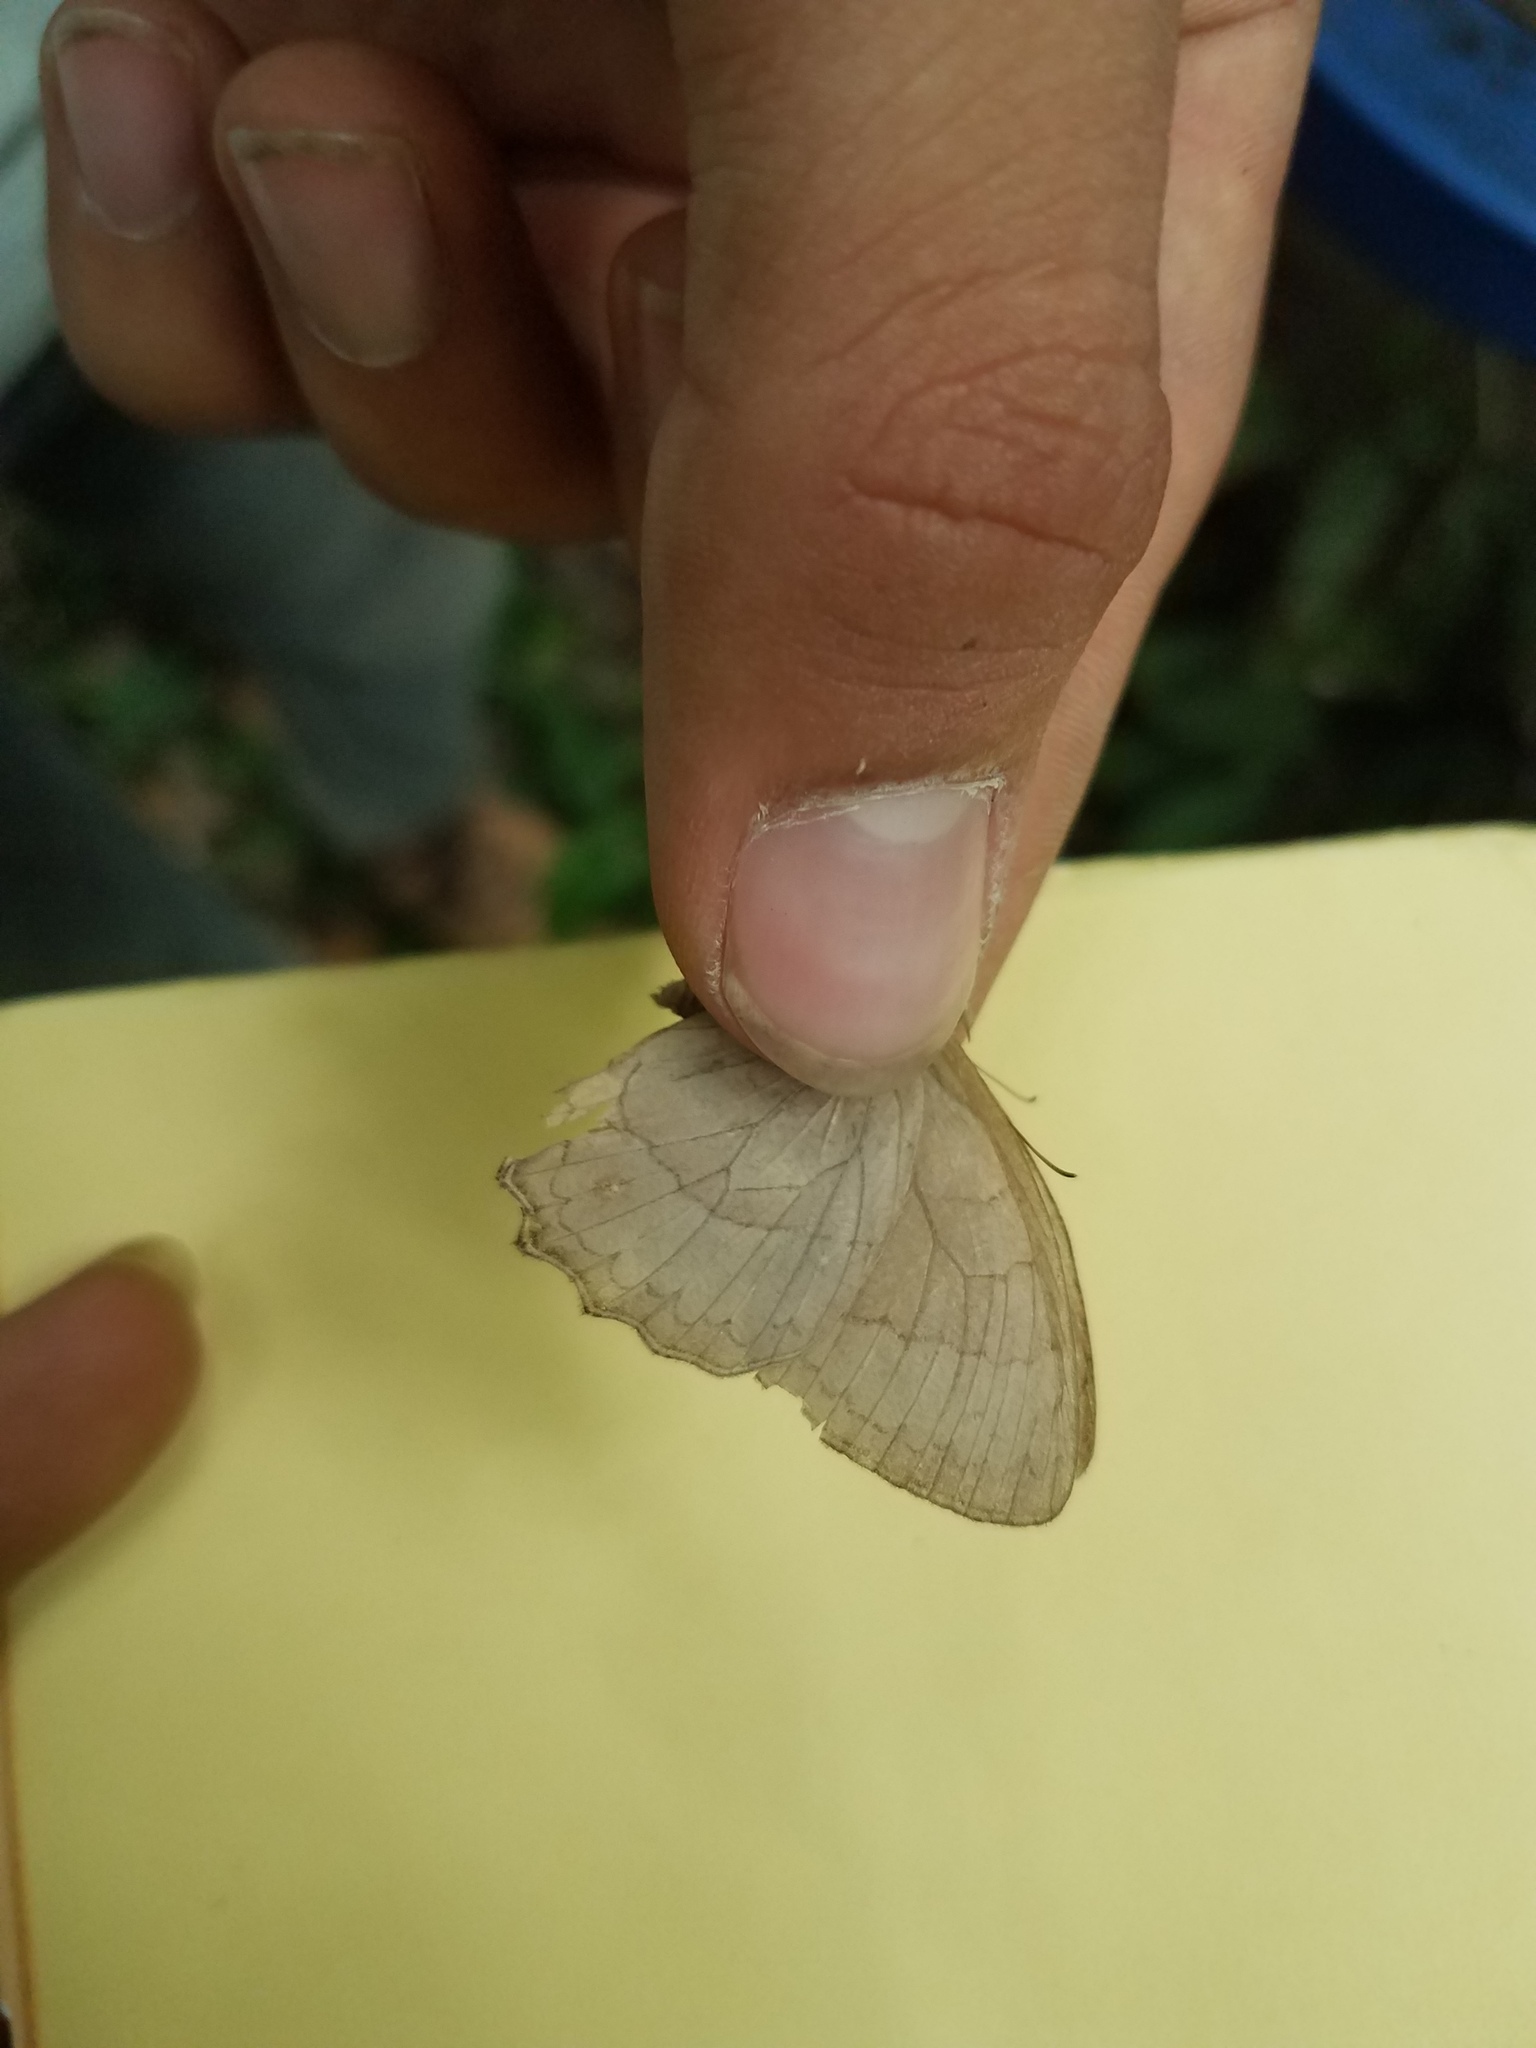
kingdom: Animalia
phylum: Arthropoda
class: Insecta
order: Lepidoptera
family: Nymphalidae
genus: Taygetina
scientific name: Taygetina kerea
